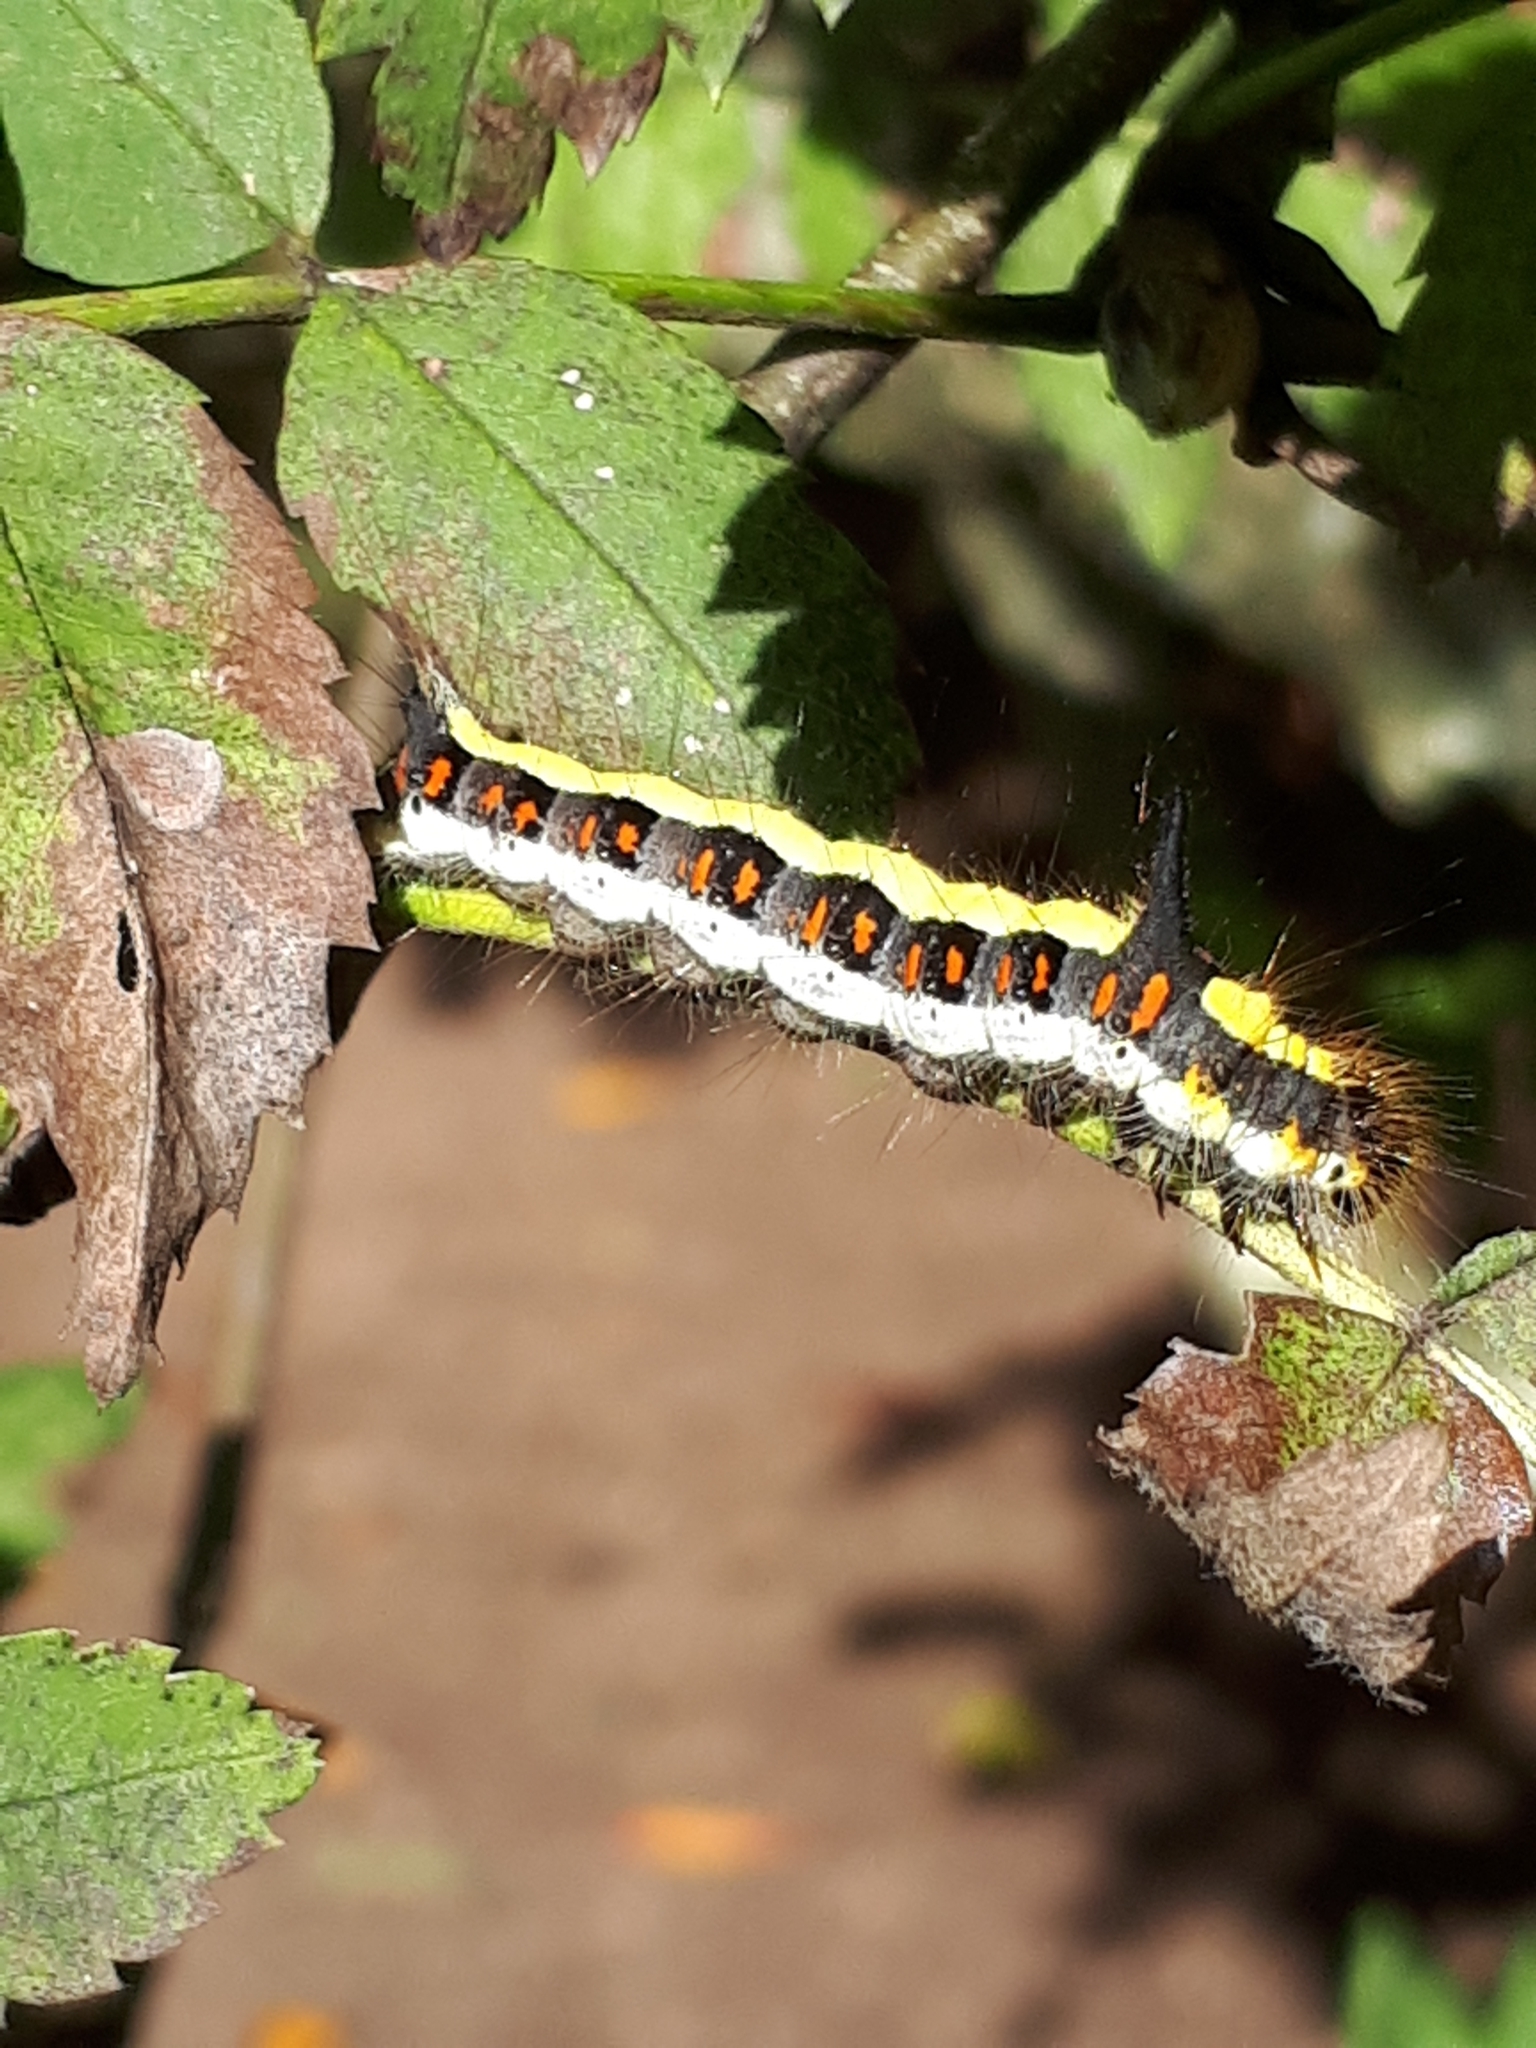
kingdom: Animalia
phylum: Arthropoda
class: Insecta
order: Lepidoptera
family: Noctuidae
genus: Acronicta
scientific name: Acronicta psi
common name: Grey dagger
